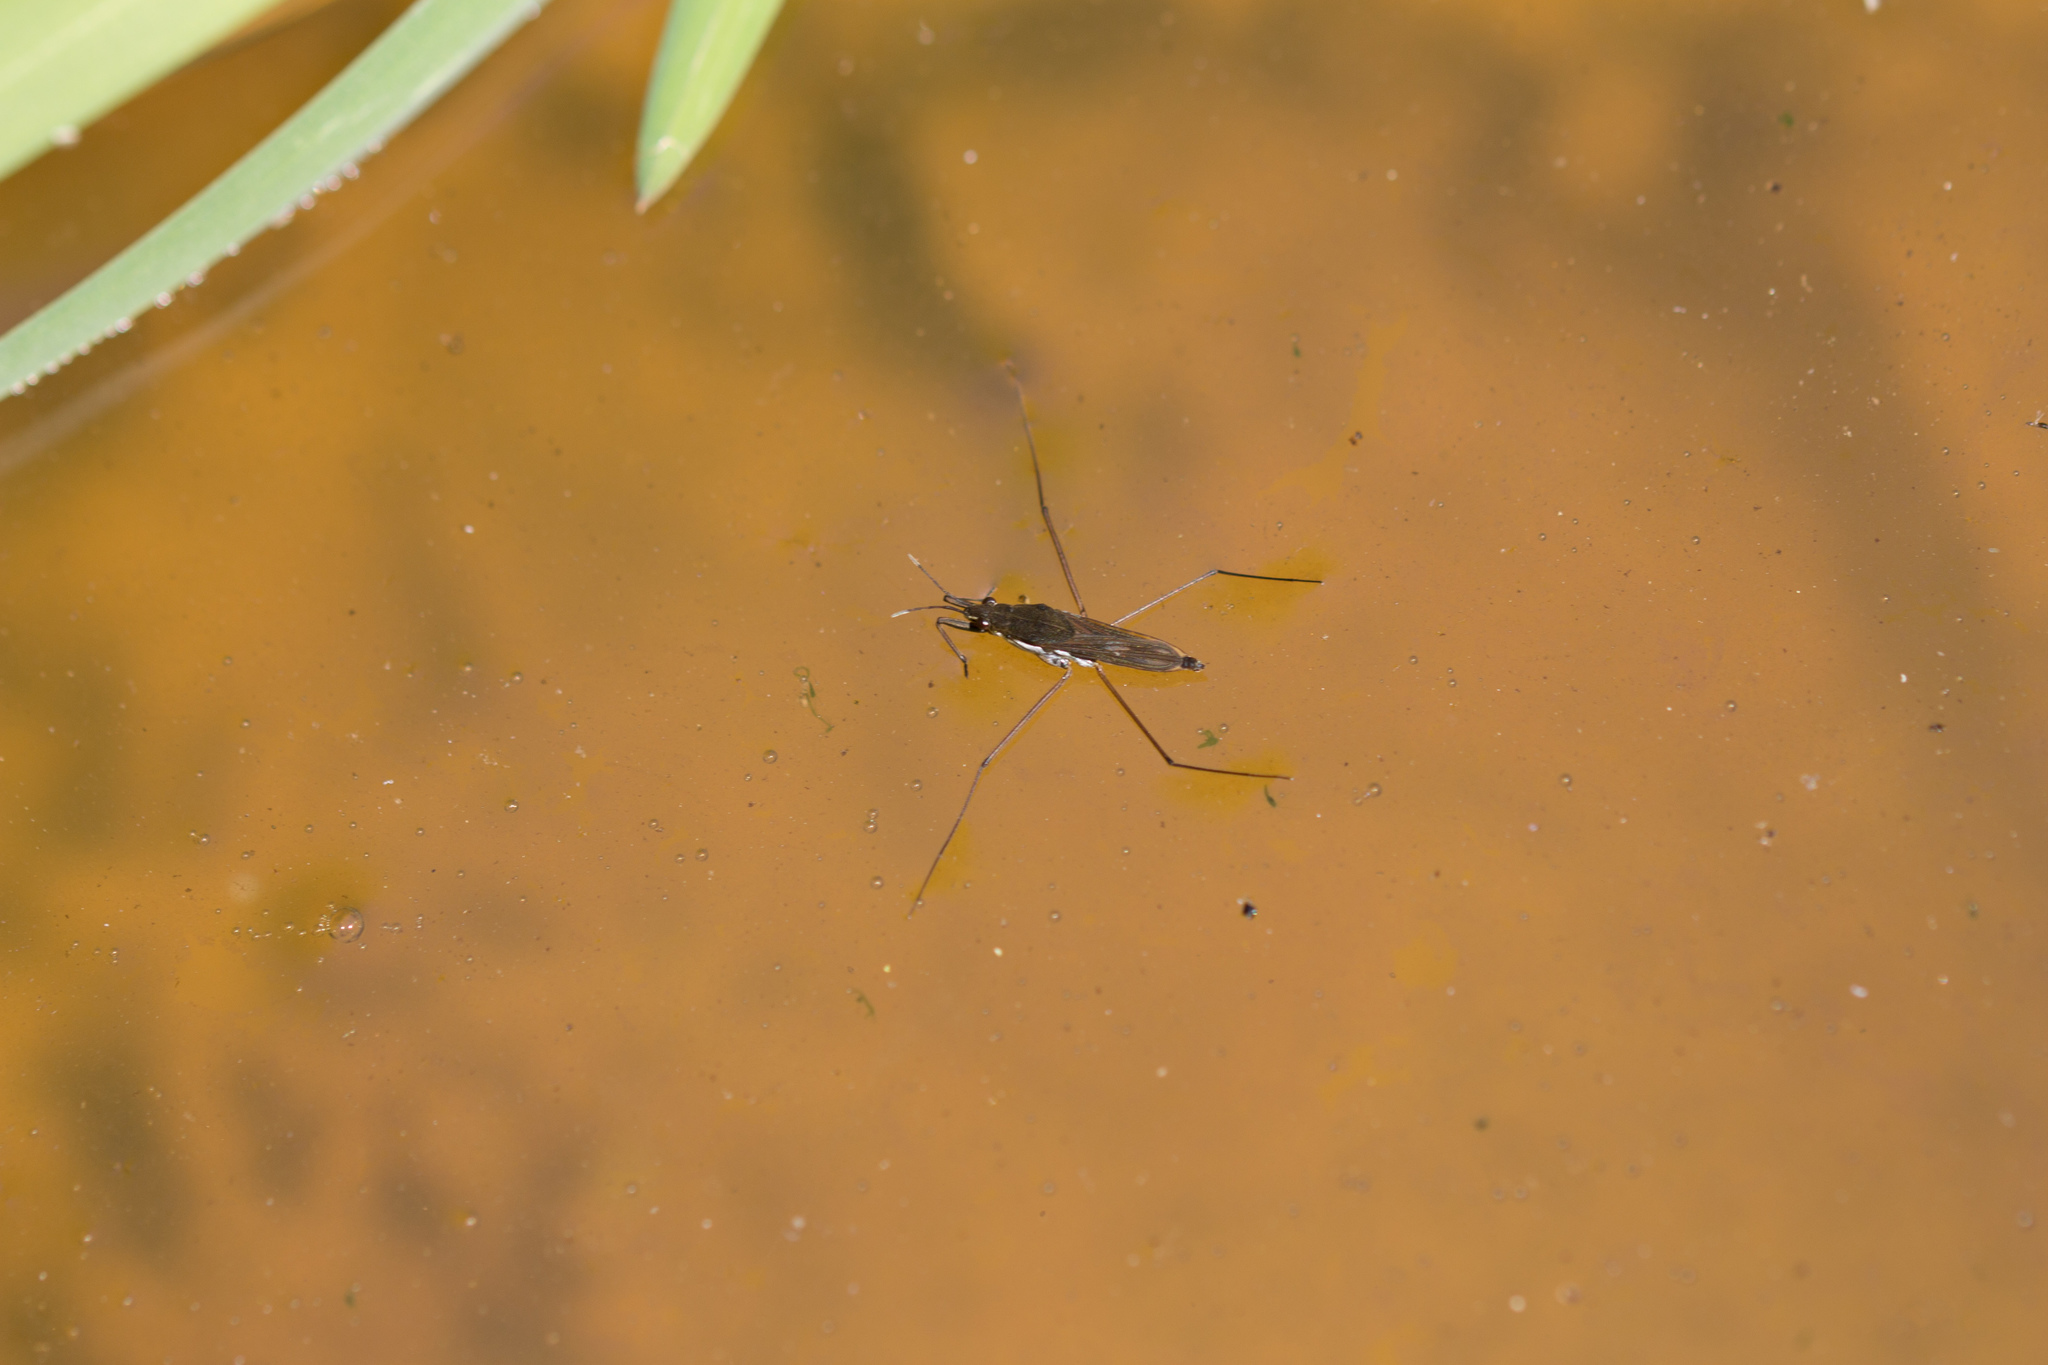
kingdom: Animalia
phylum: Arthropoda
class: Insecta
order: Hemiptera
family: Gerridae
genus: Gerris
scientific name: Gerris
